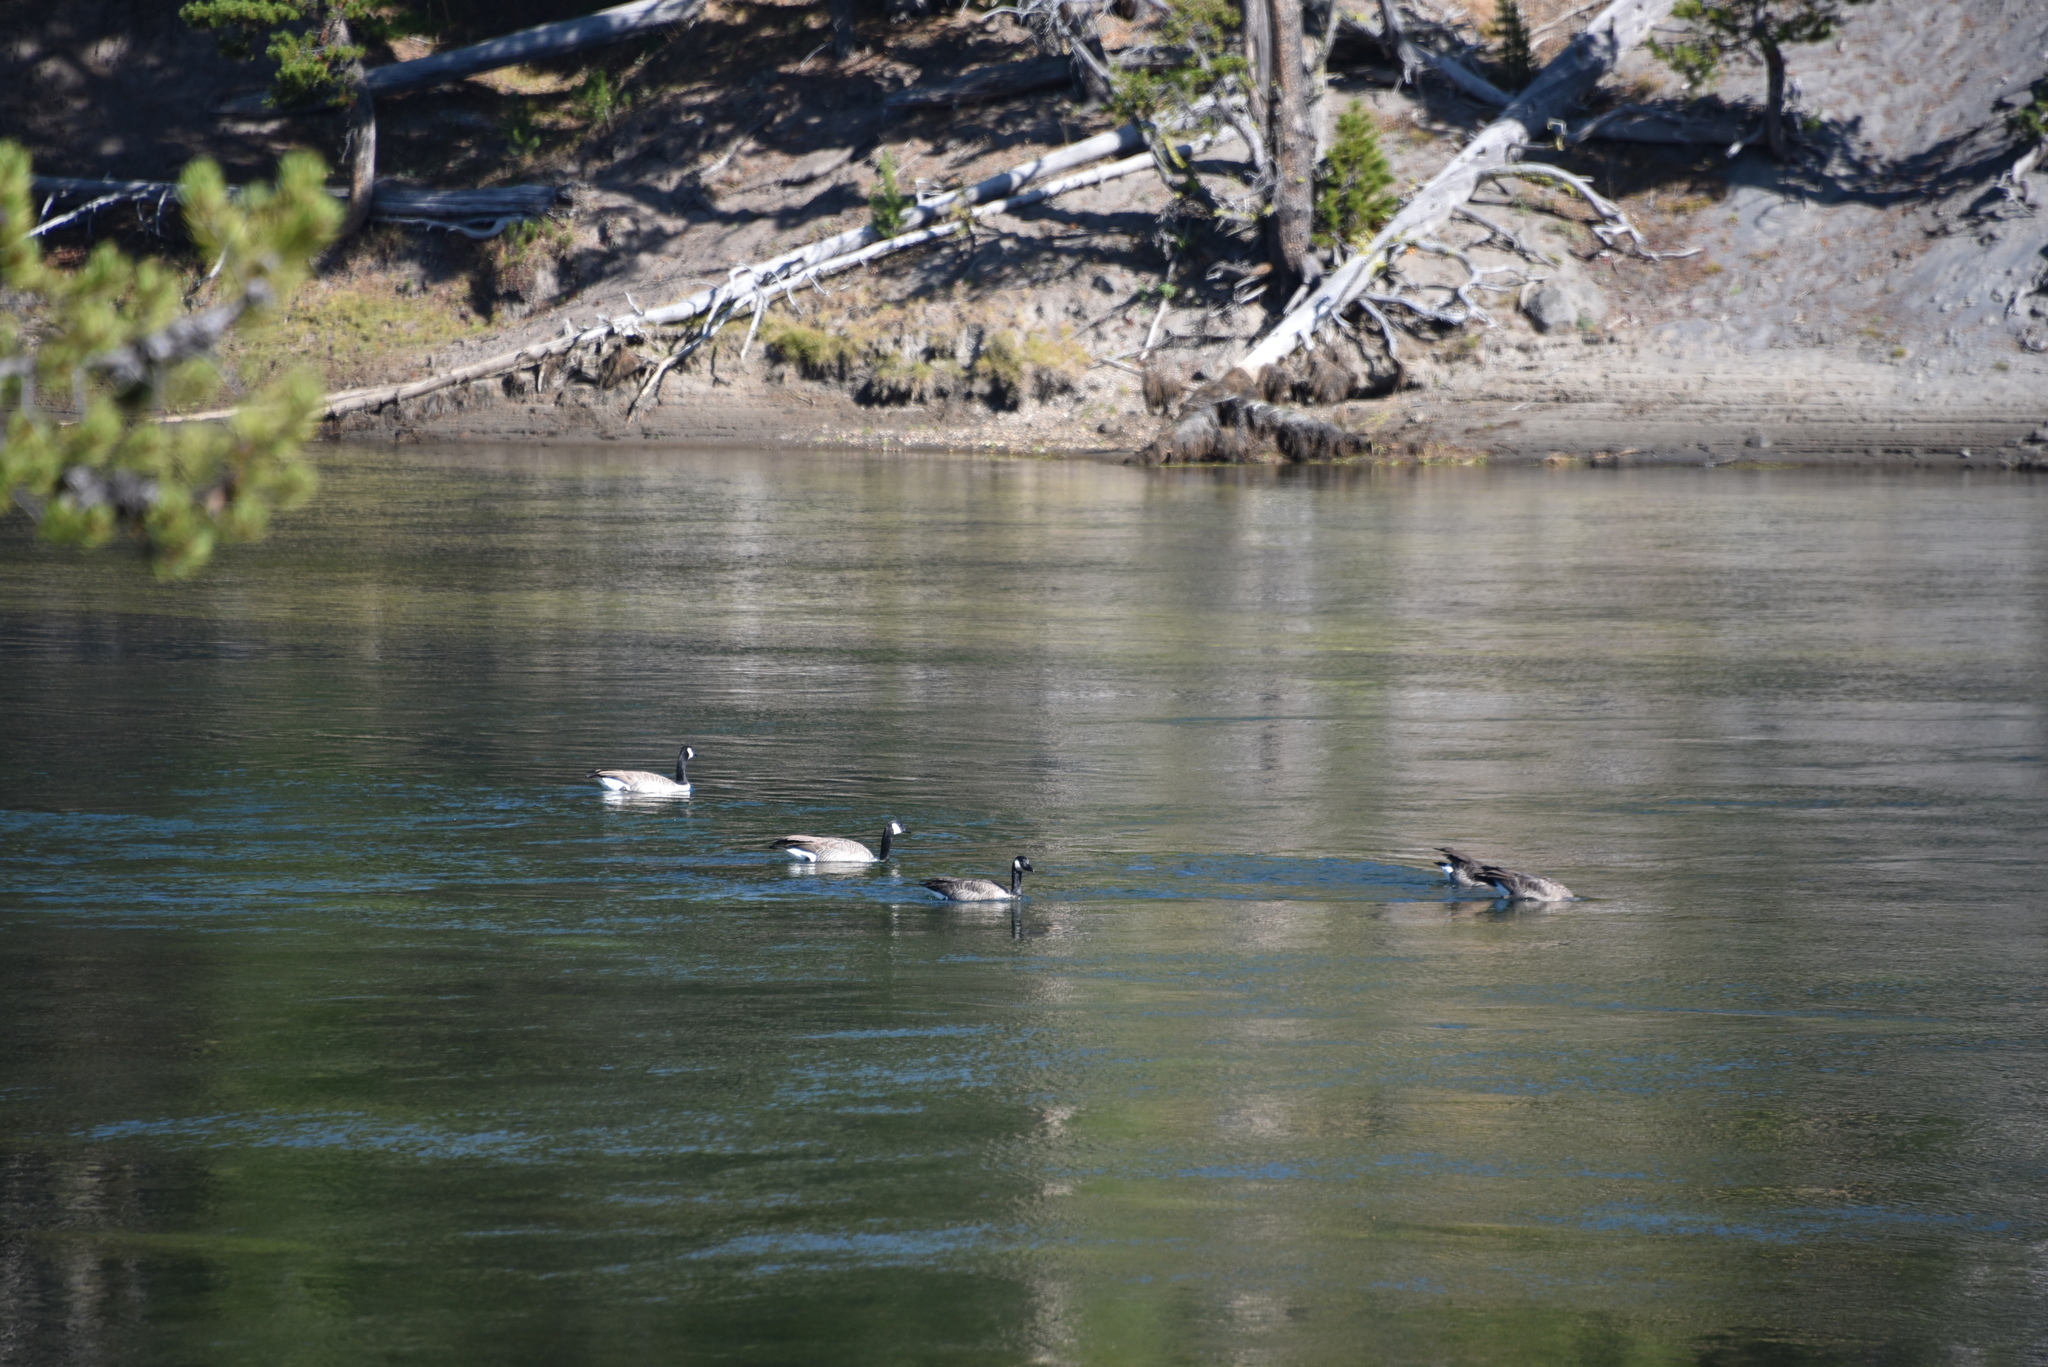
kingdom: Animalia
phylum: Chordata
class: Aves
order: Anseriformes
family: Anatidae
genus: Branta
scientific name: Branta canadensis
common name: Canada goose
